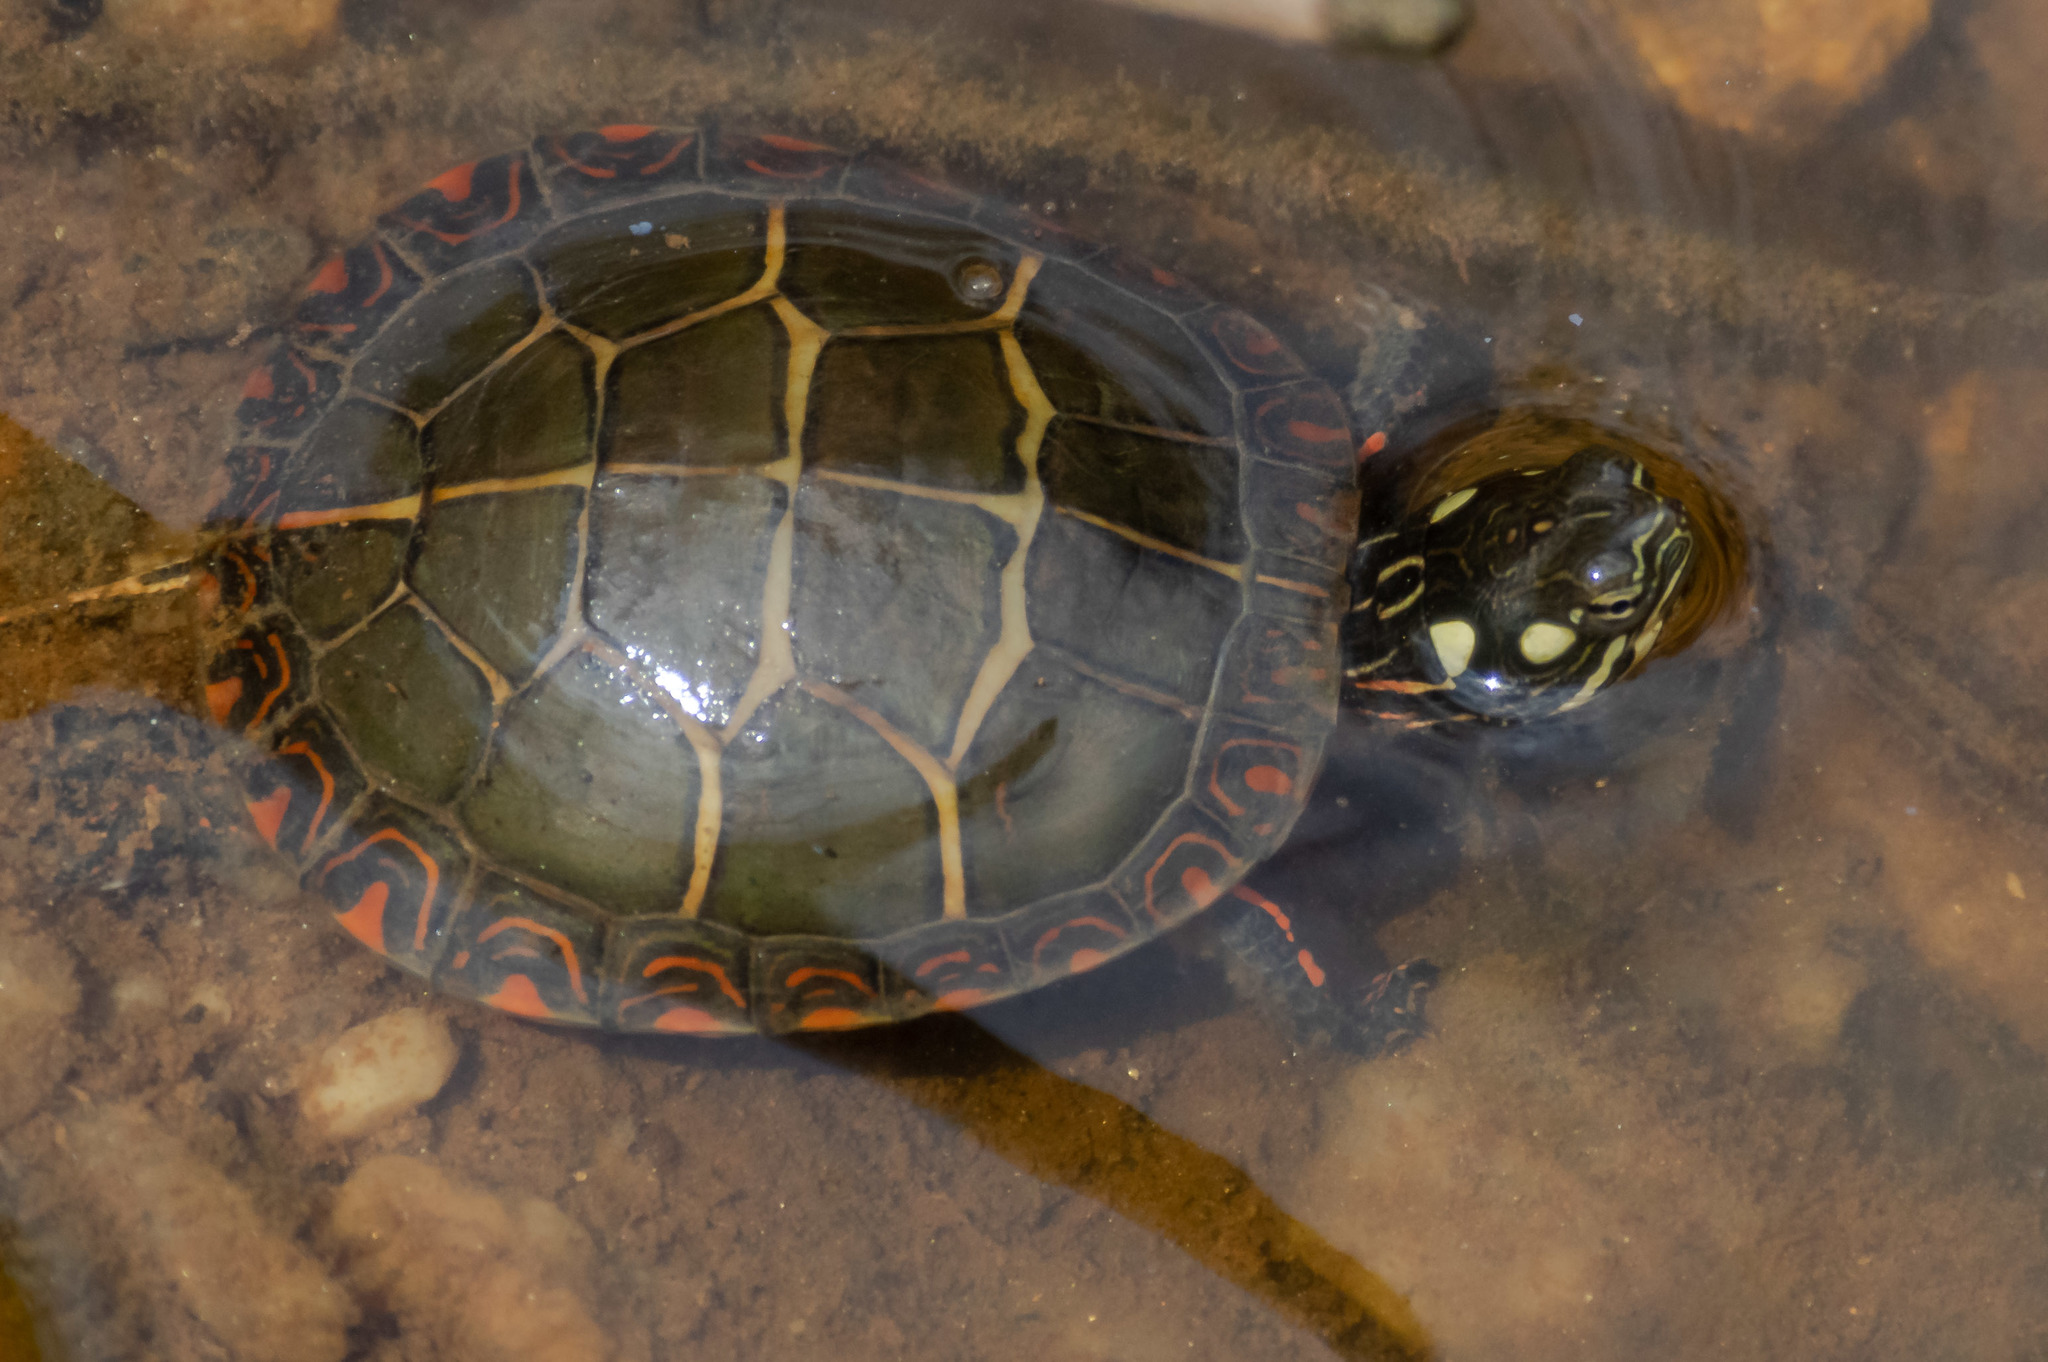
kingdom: Animalia
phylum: Chordata
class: Testudines
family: Emydidae
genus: Chrysemys
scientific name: Chrysemys picta
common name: Painted turtle
